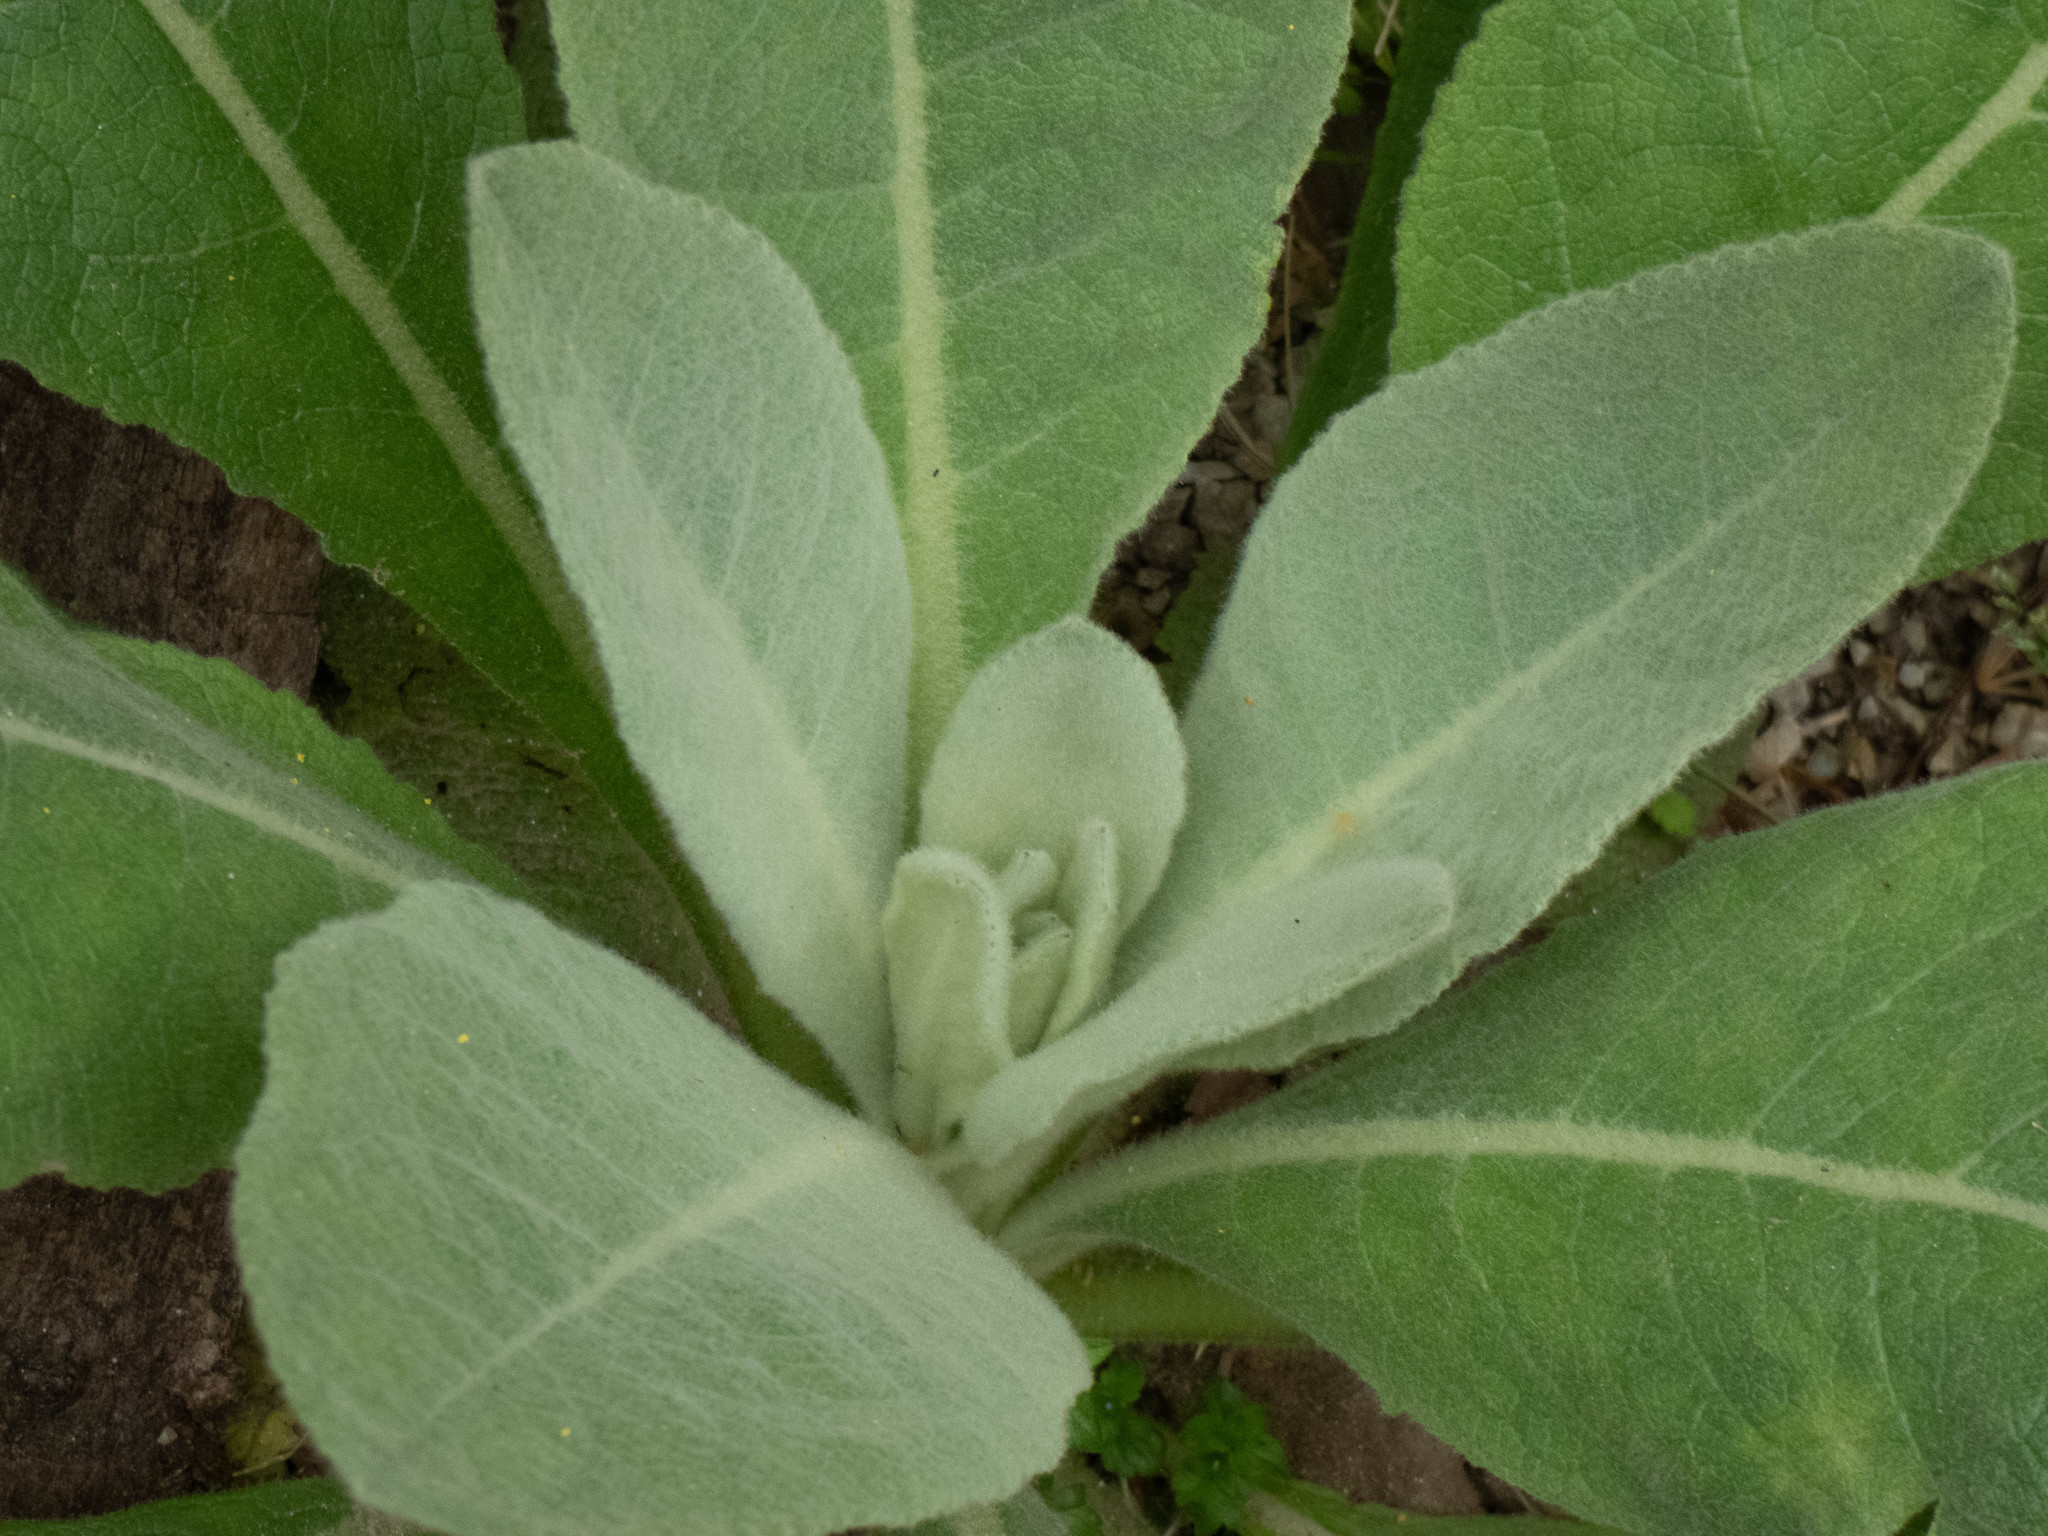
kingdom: Plantae
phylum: Tracheophyta
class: Magnoliopsida
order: Lamiales
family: Scrophulariaceae
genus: Verbascum
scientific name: Verbascum thapsus
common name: Common mullein
